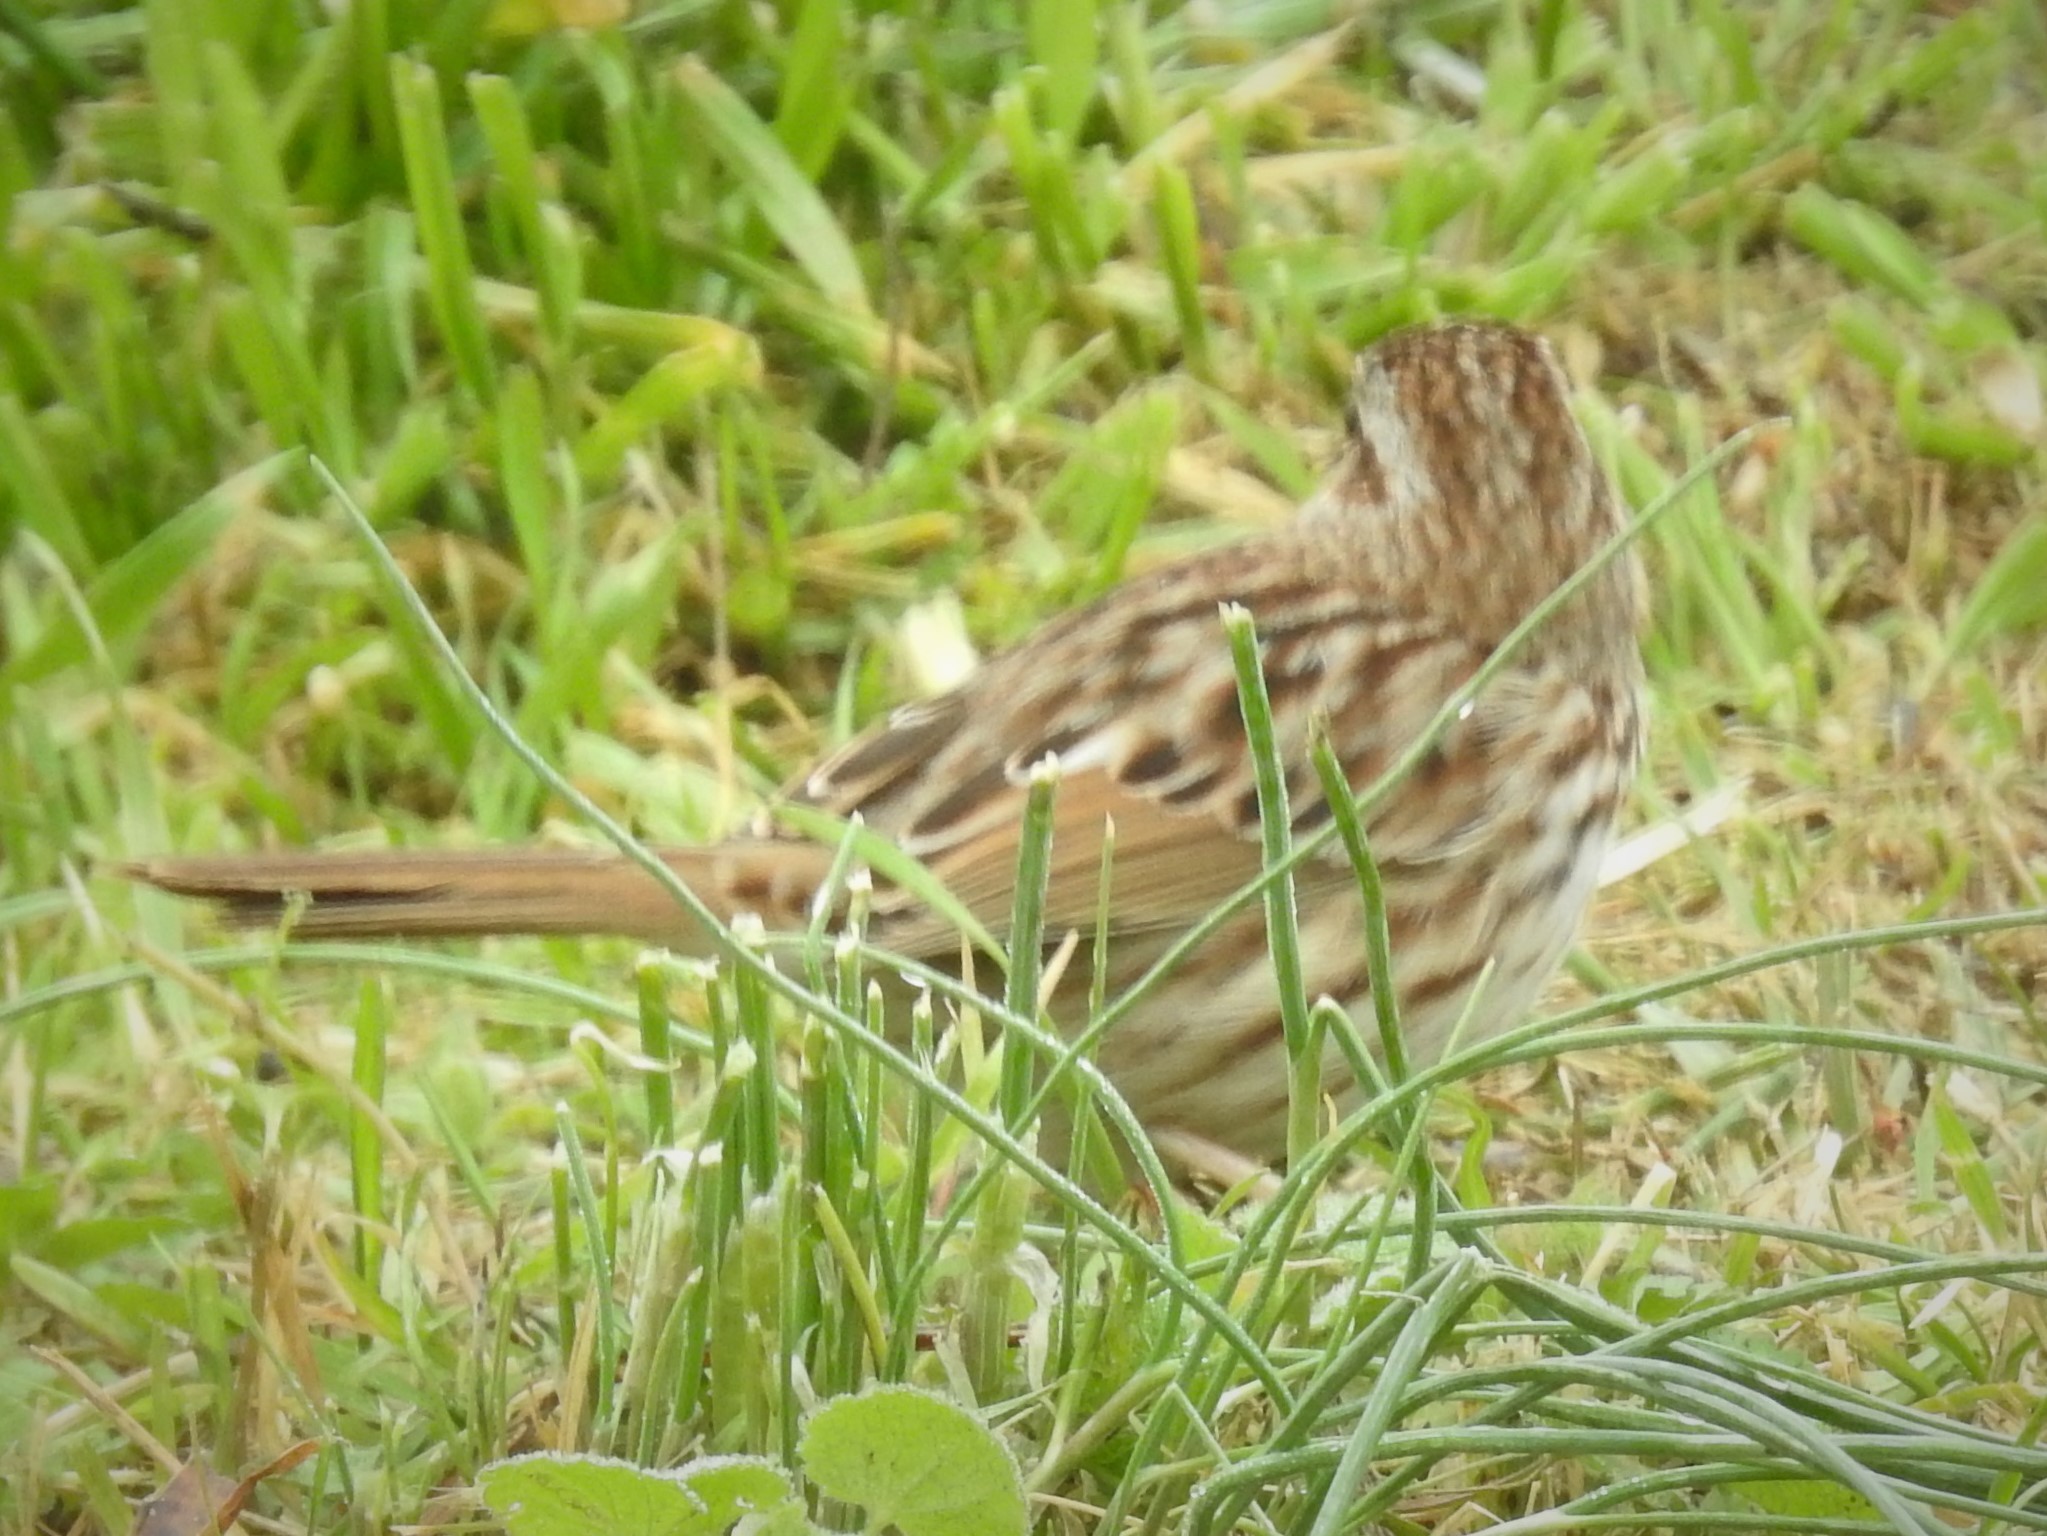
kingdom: Animalia
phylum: Chordata
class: Aves
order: Passeriformes
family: Passerellidae
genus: Melospiza
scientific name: Melospiza melodia
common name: Song sparrow
